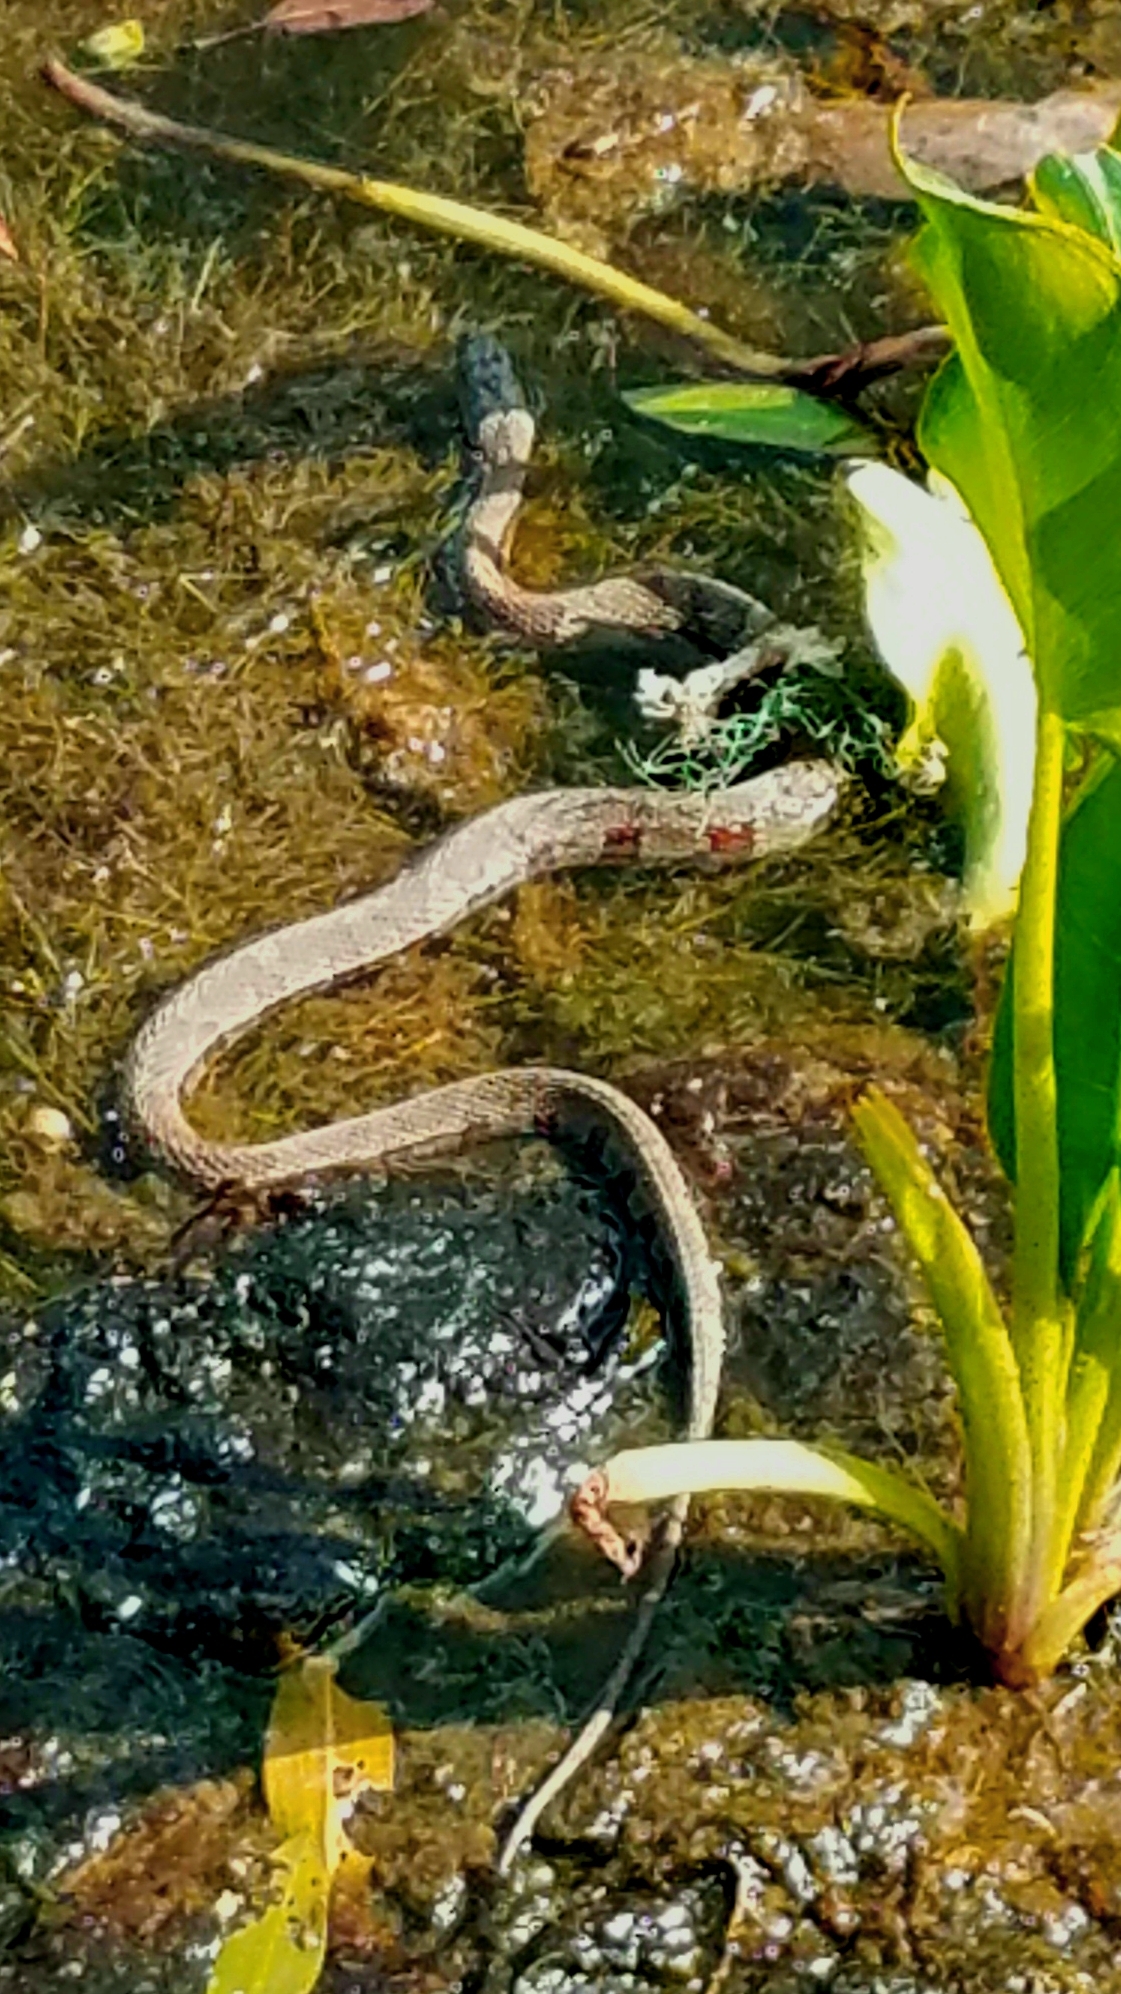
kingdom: Animalia
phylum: Chordata
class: Squamata
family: Colubridae
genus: Nerodia
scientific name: Nerodia sipedon
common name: Northern water snake
